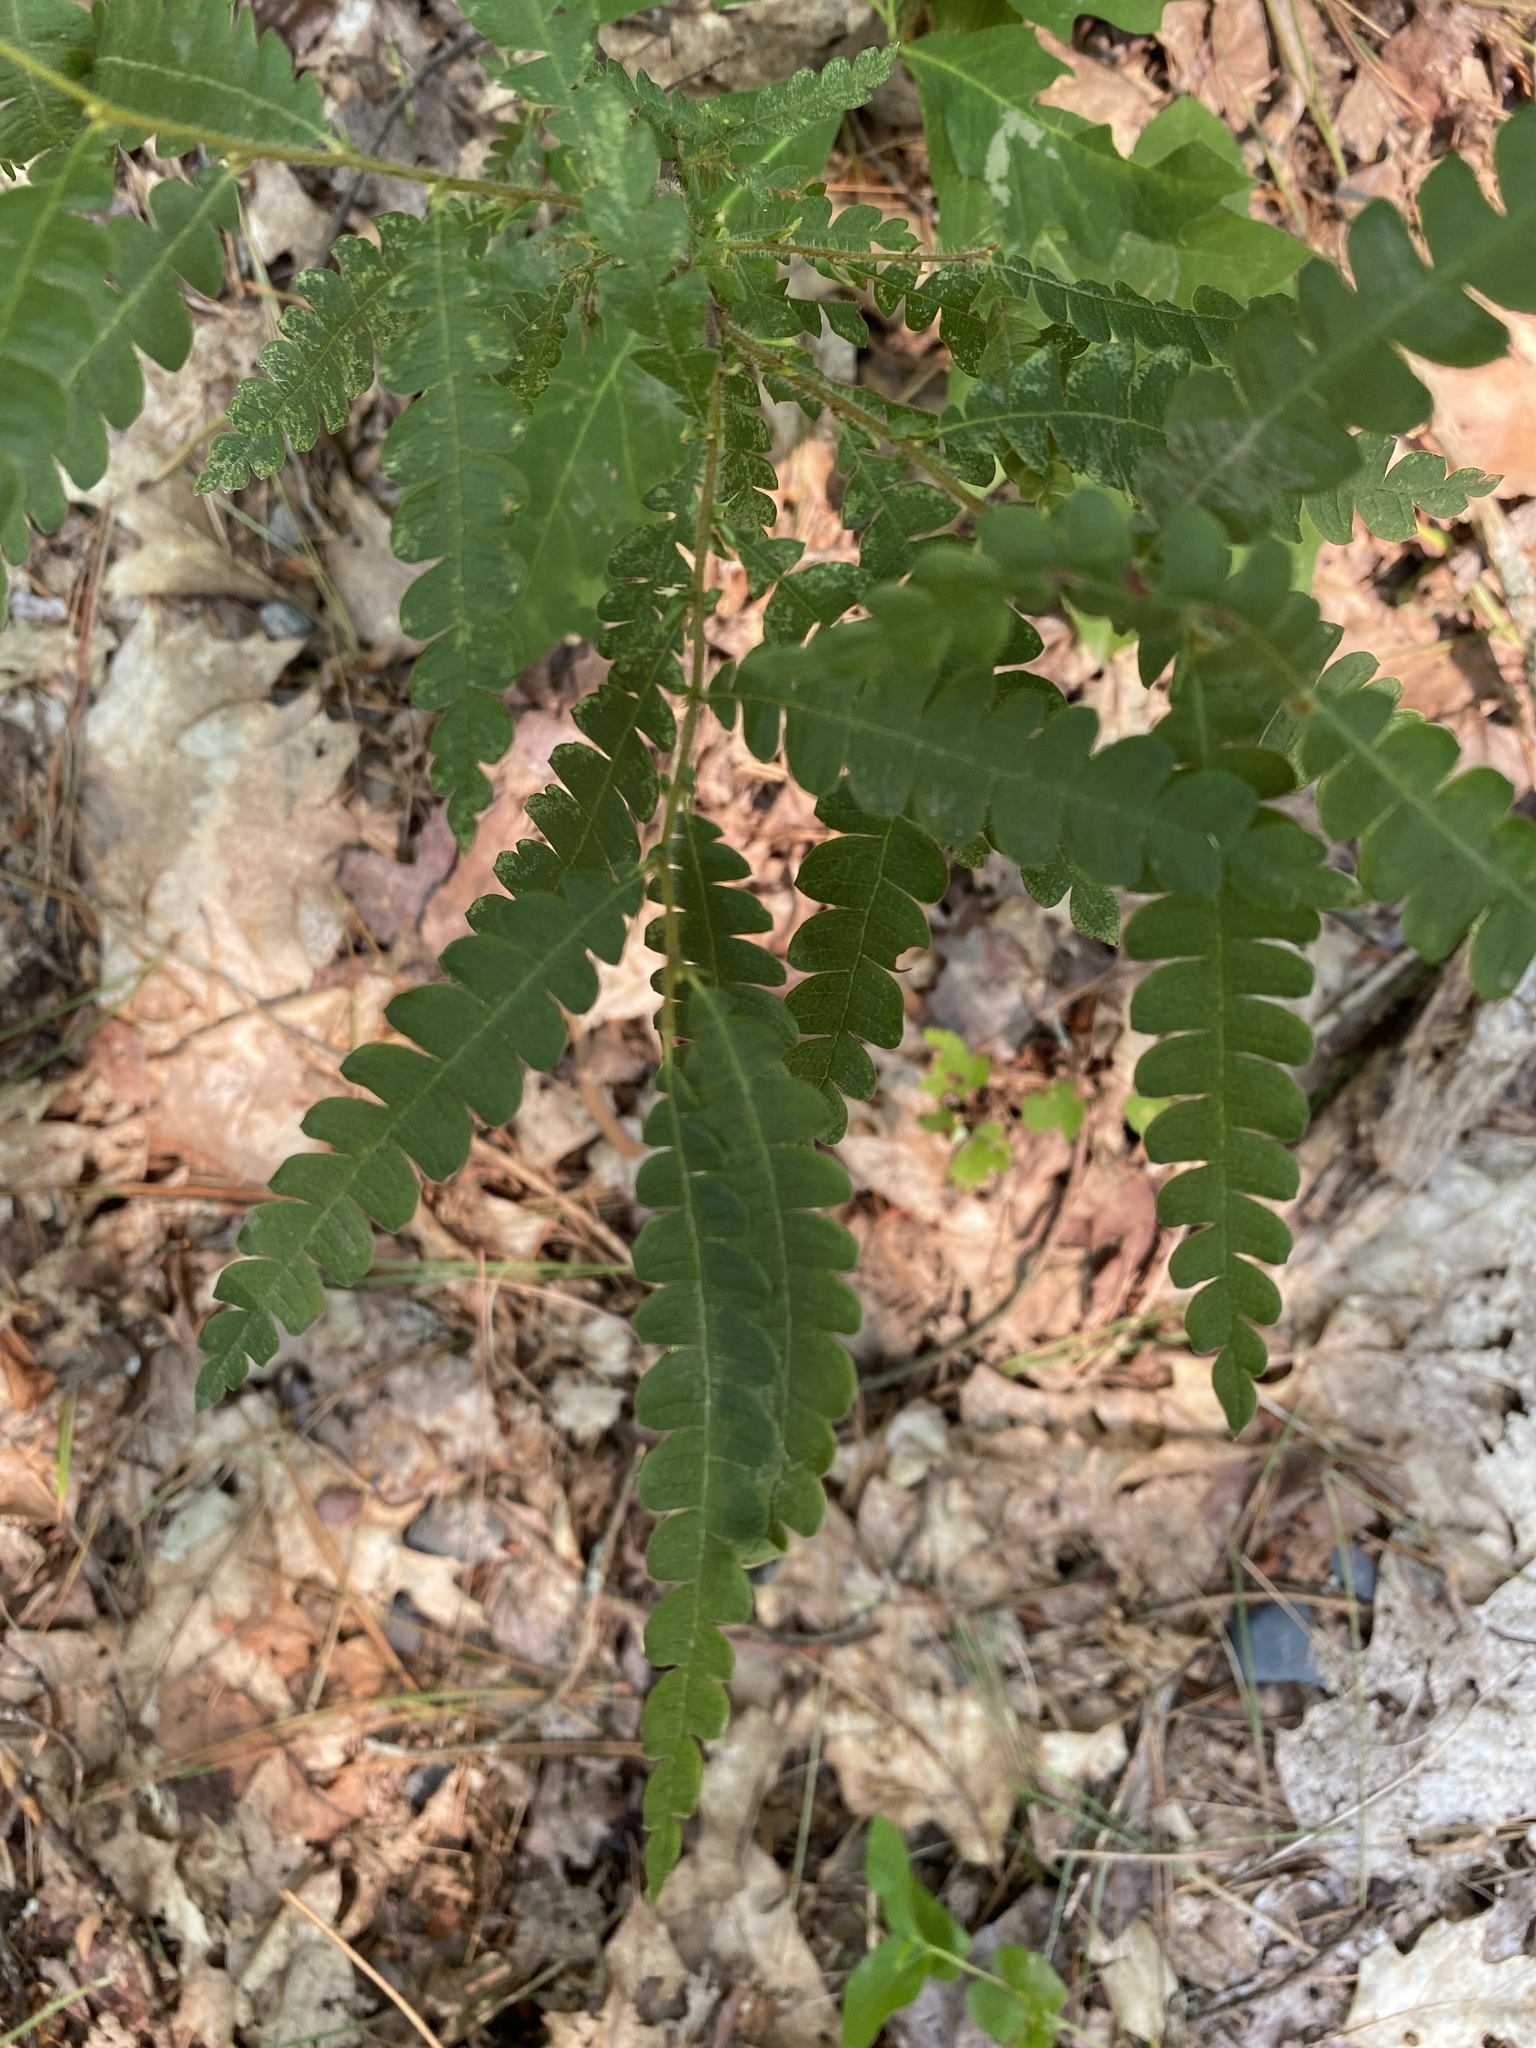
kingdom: Plantae
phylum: Tracheophyta
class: Magnoliopsida
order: Fagales
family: Myricaceae
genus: Comptonia
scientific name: Comptonia peregrina
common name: Sweet-fern
